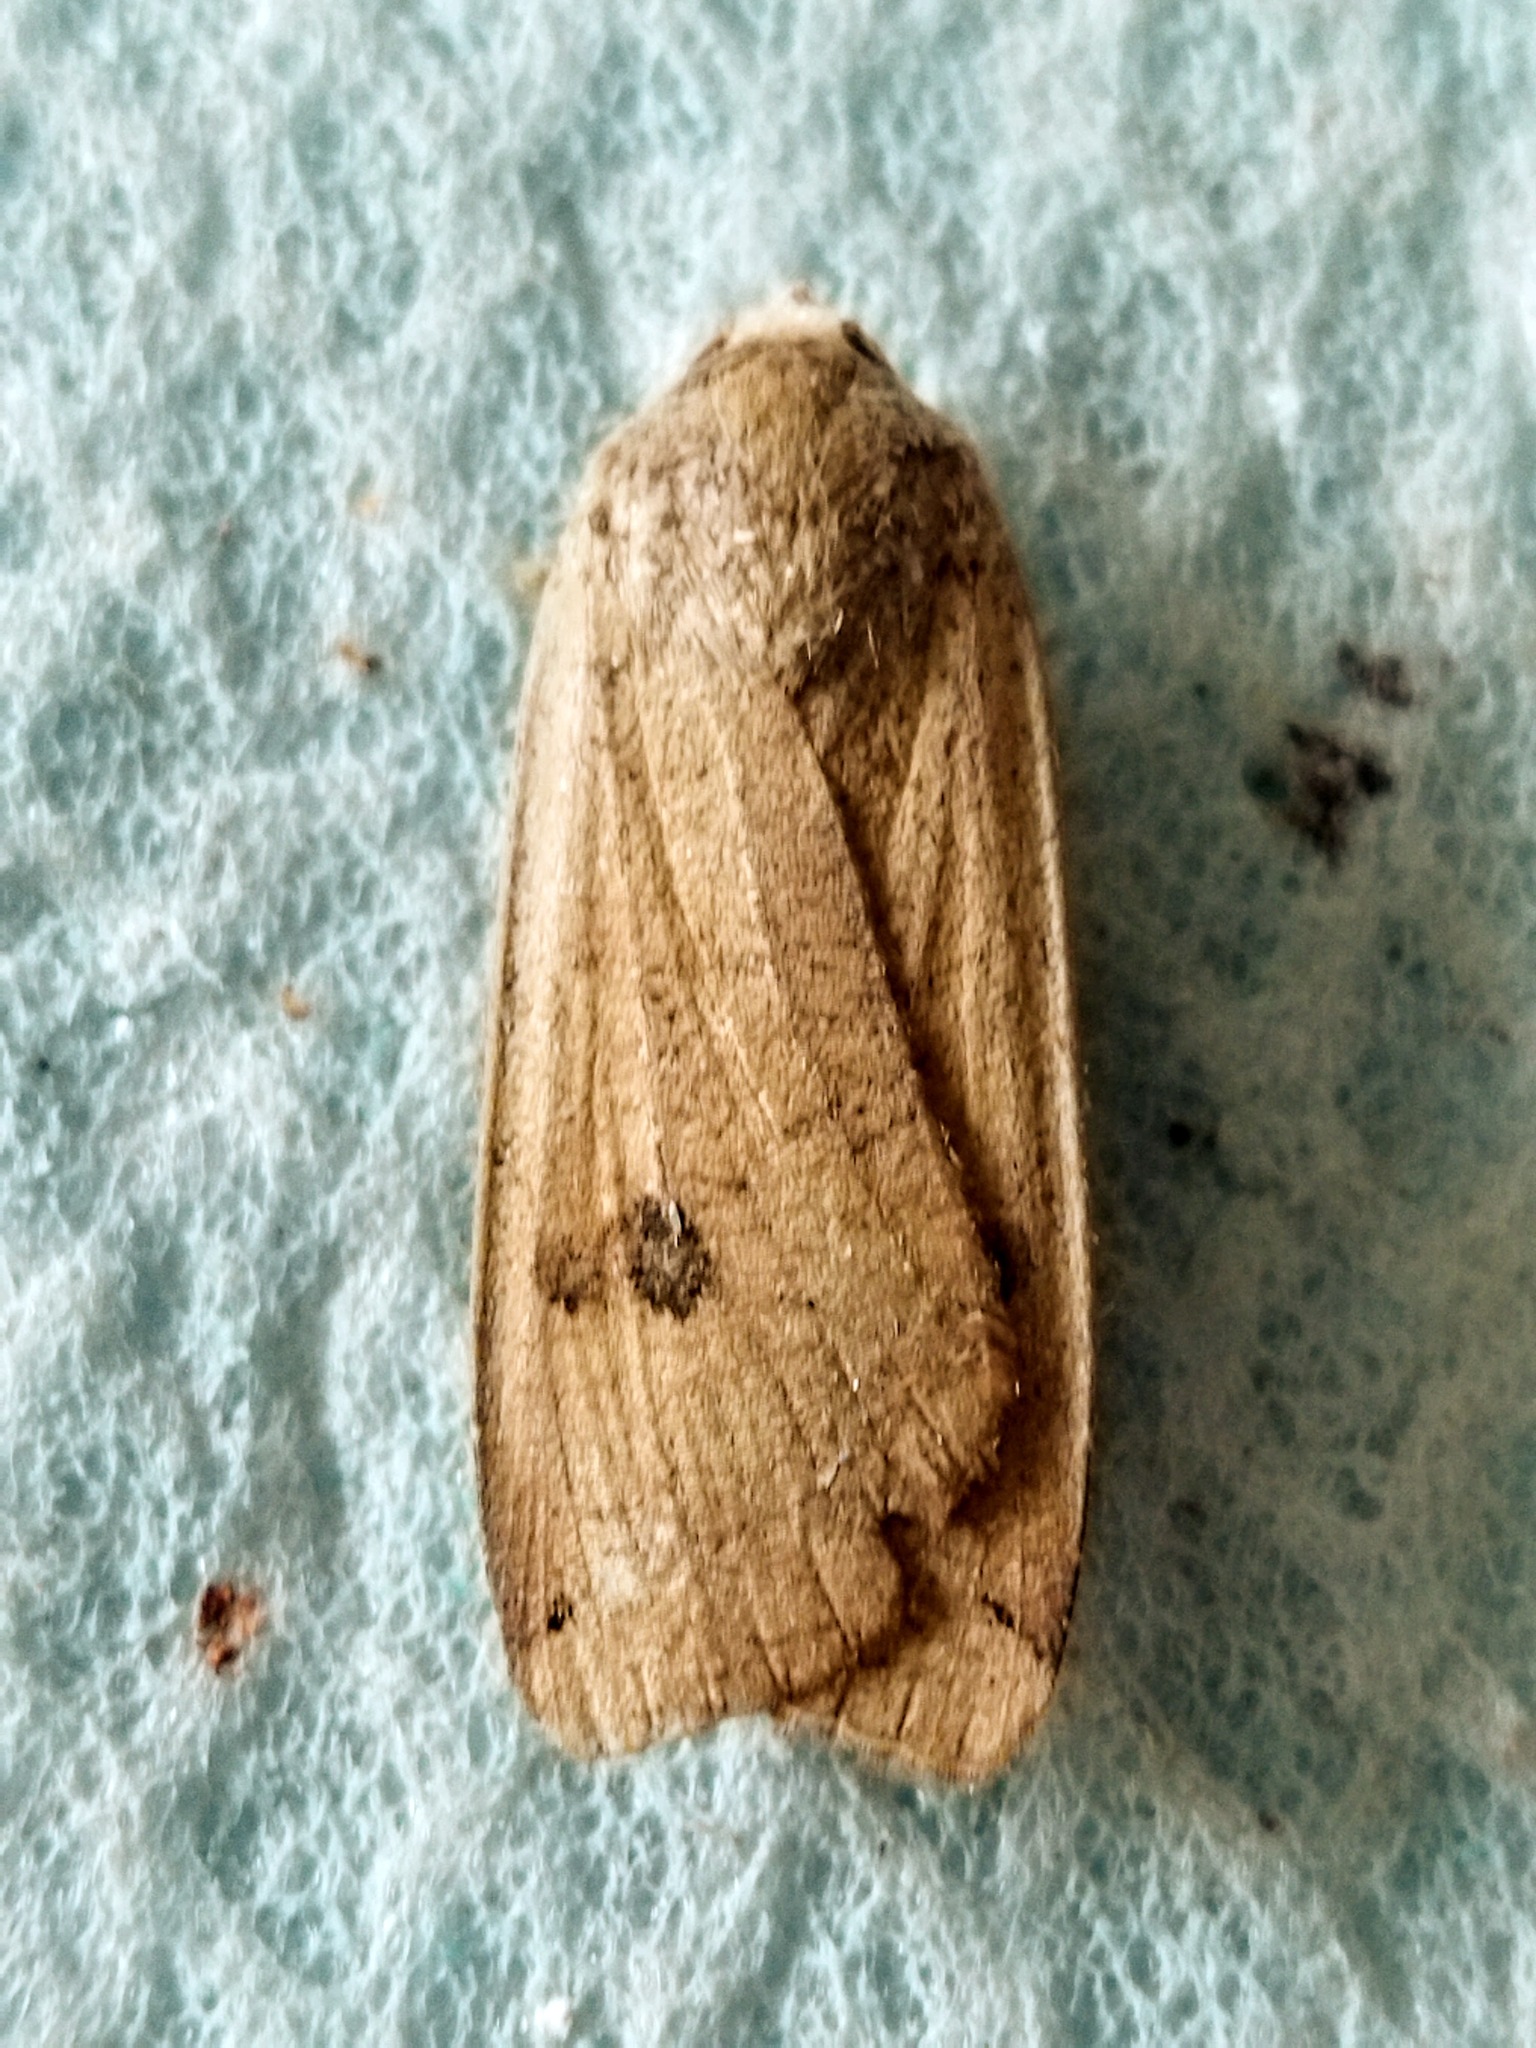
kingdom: Animalia
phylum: Arthropoda
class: Insecta
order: Lepidoptera
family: Noctuidae
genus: Noctua
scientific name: Noctua pronuba
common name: Large yellow underwing
